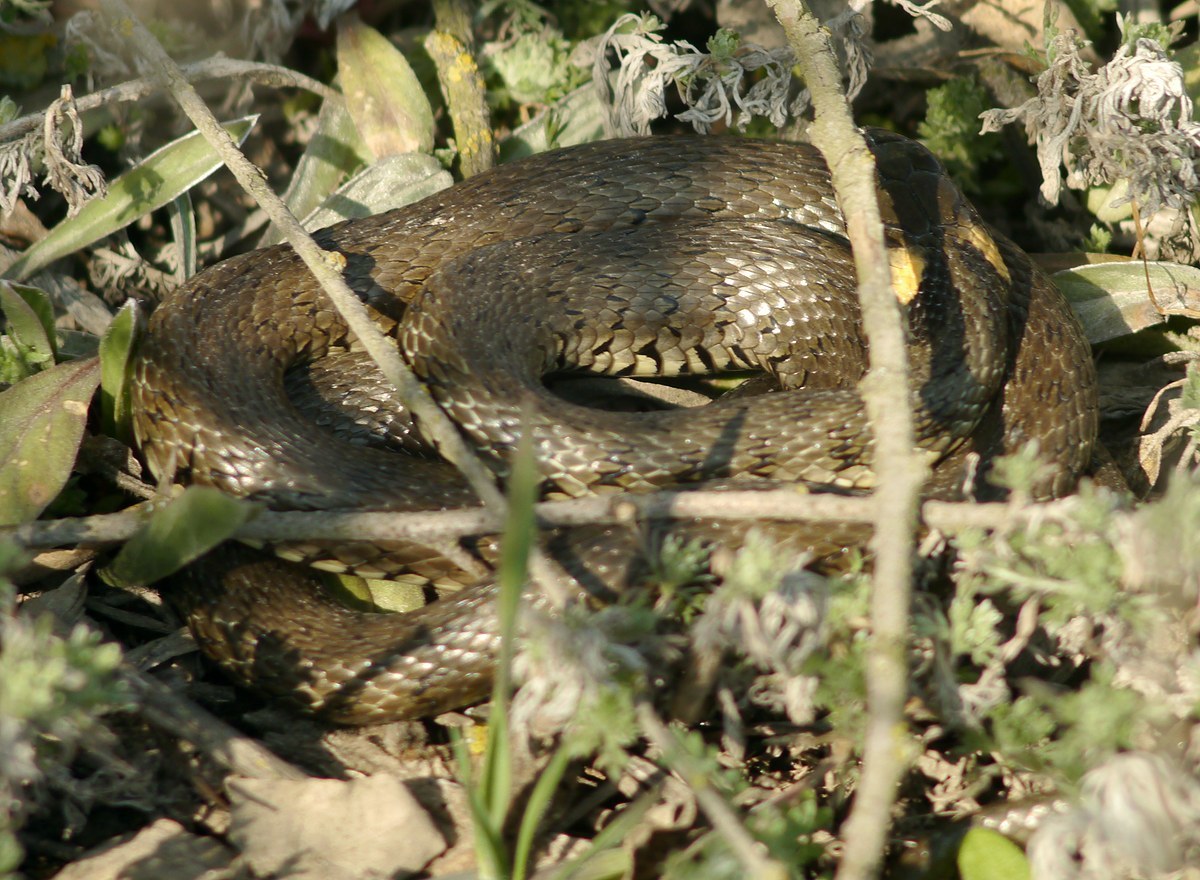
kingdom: Animalia
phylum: Chordata
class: Squamata
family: Colubridae
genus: Natrix
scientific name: Natrix natrix
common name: Grass snake
